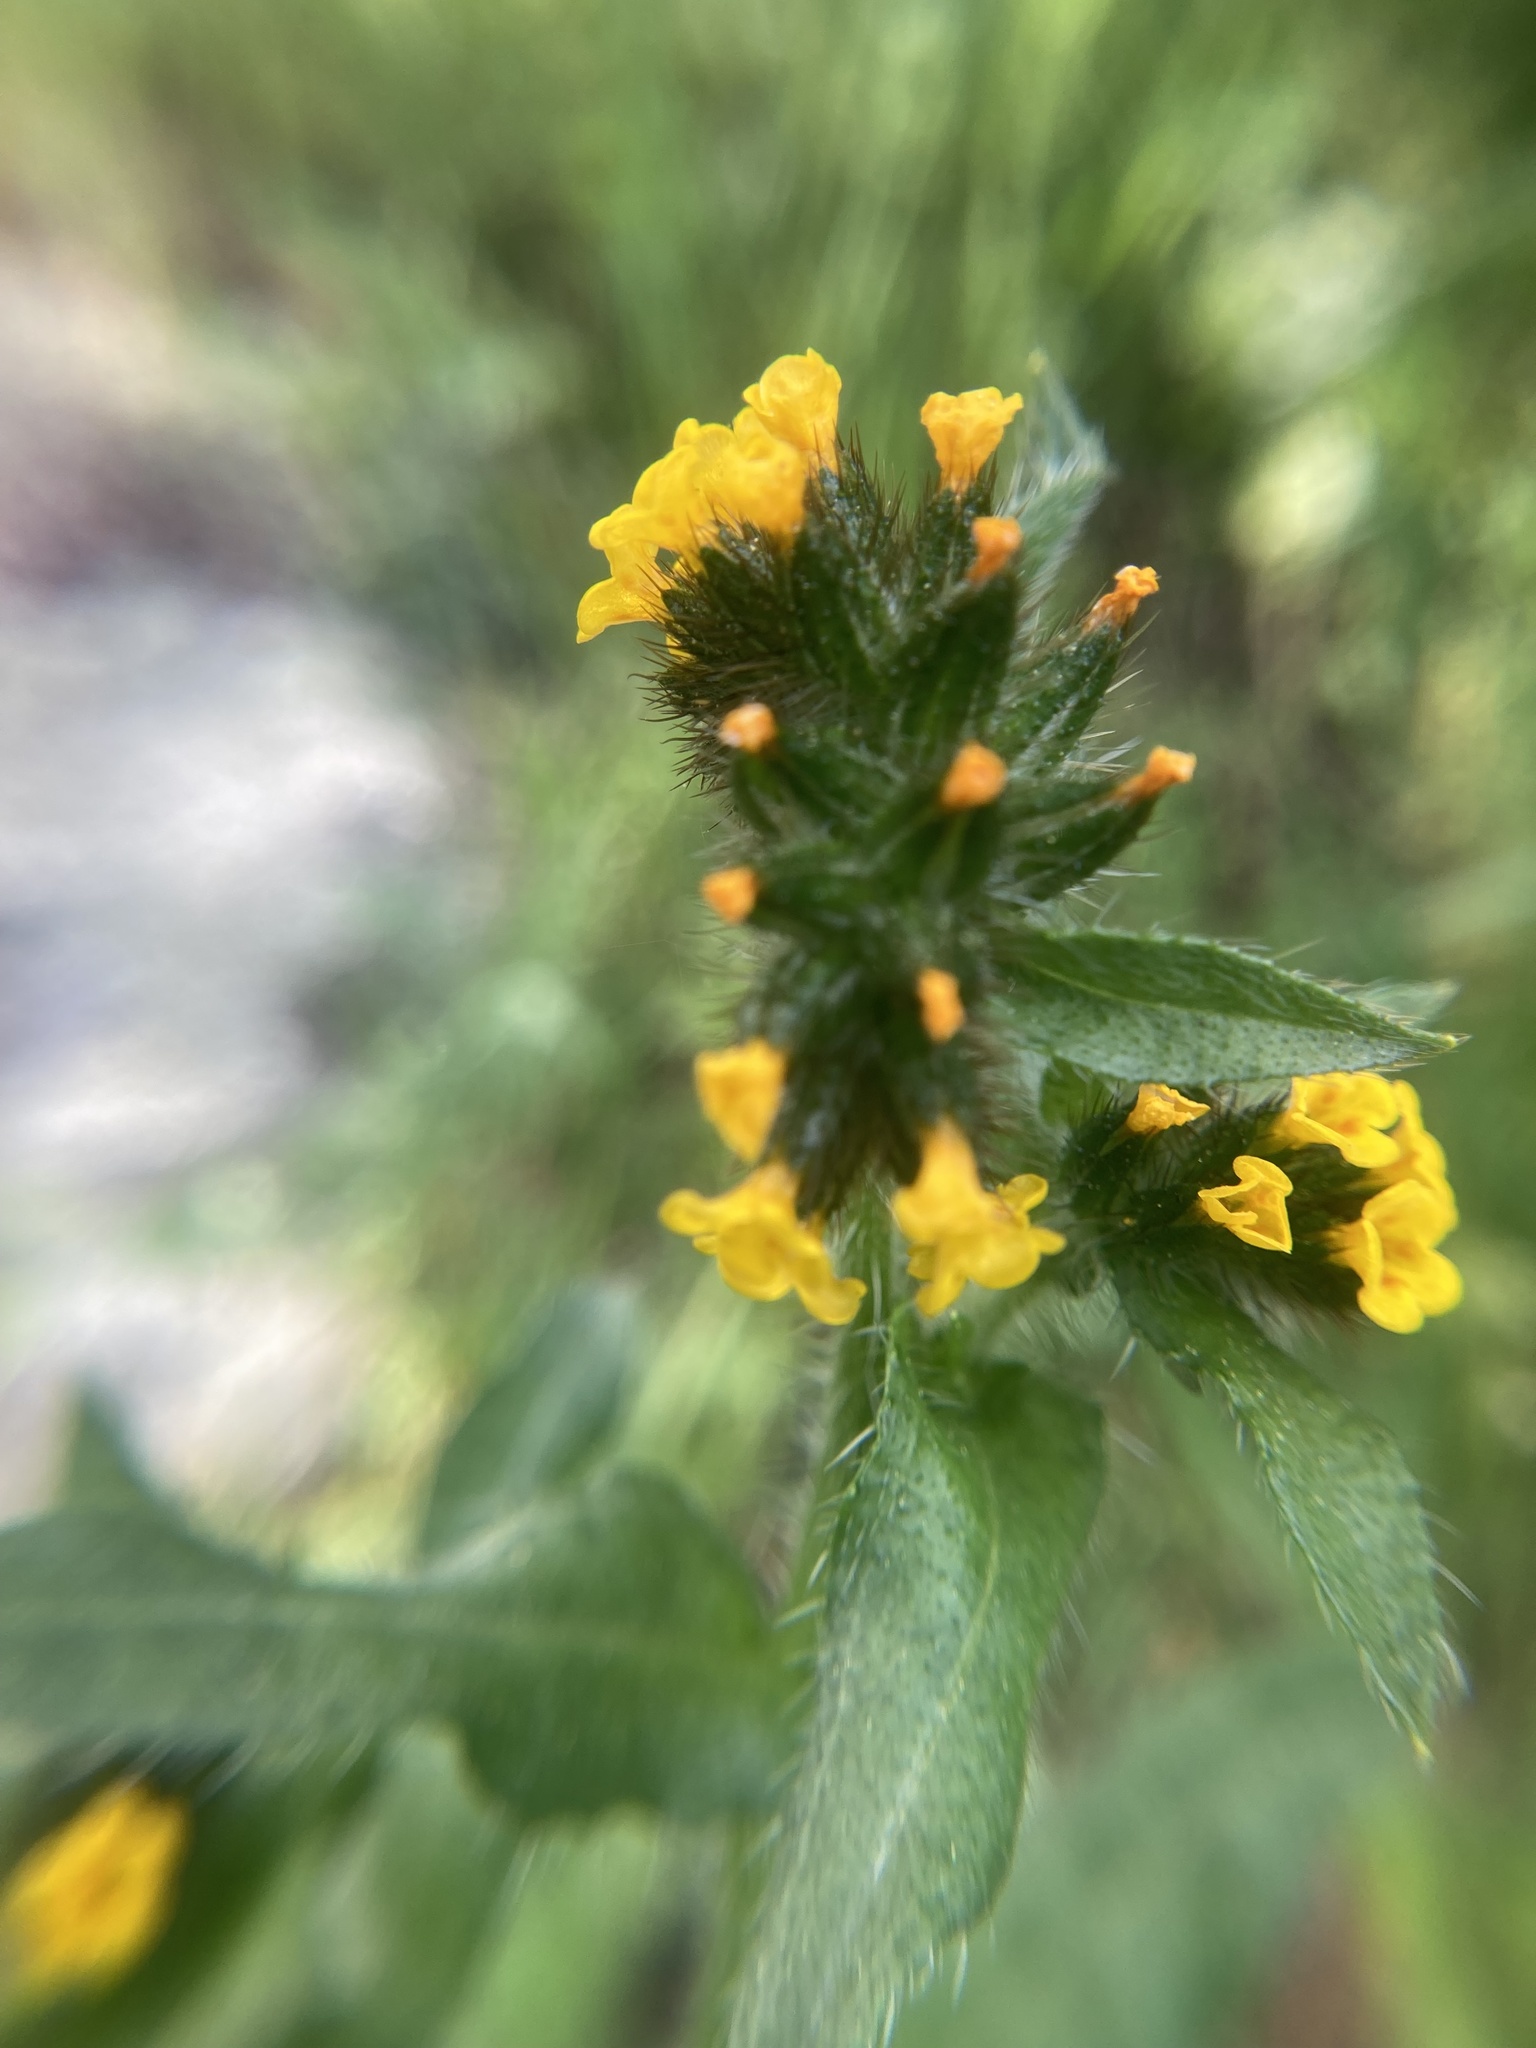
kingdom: Plantae
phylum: Tracheophyta
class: Magnoliopsida
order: Boraginales
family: Boraginaceae
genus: Amsinckia
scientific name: Amsinckia menziesii
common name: Menzies' fiddleneck
